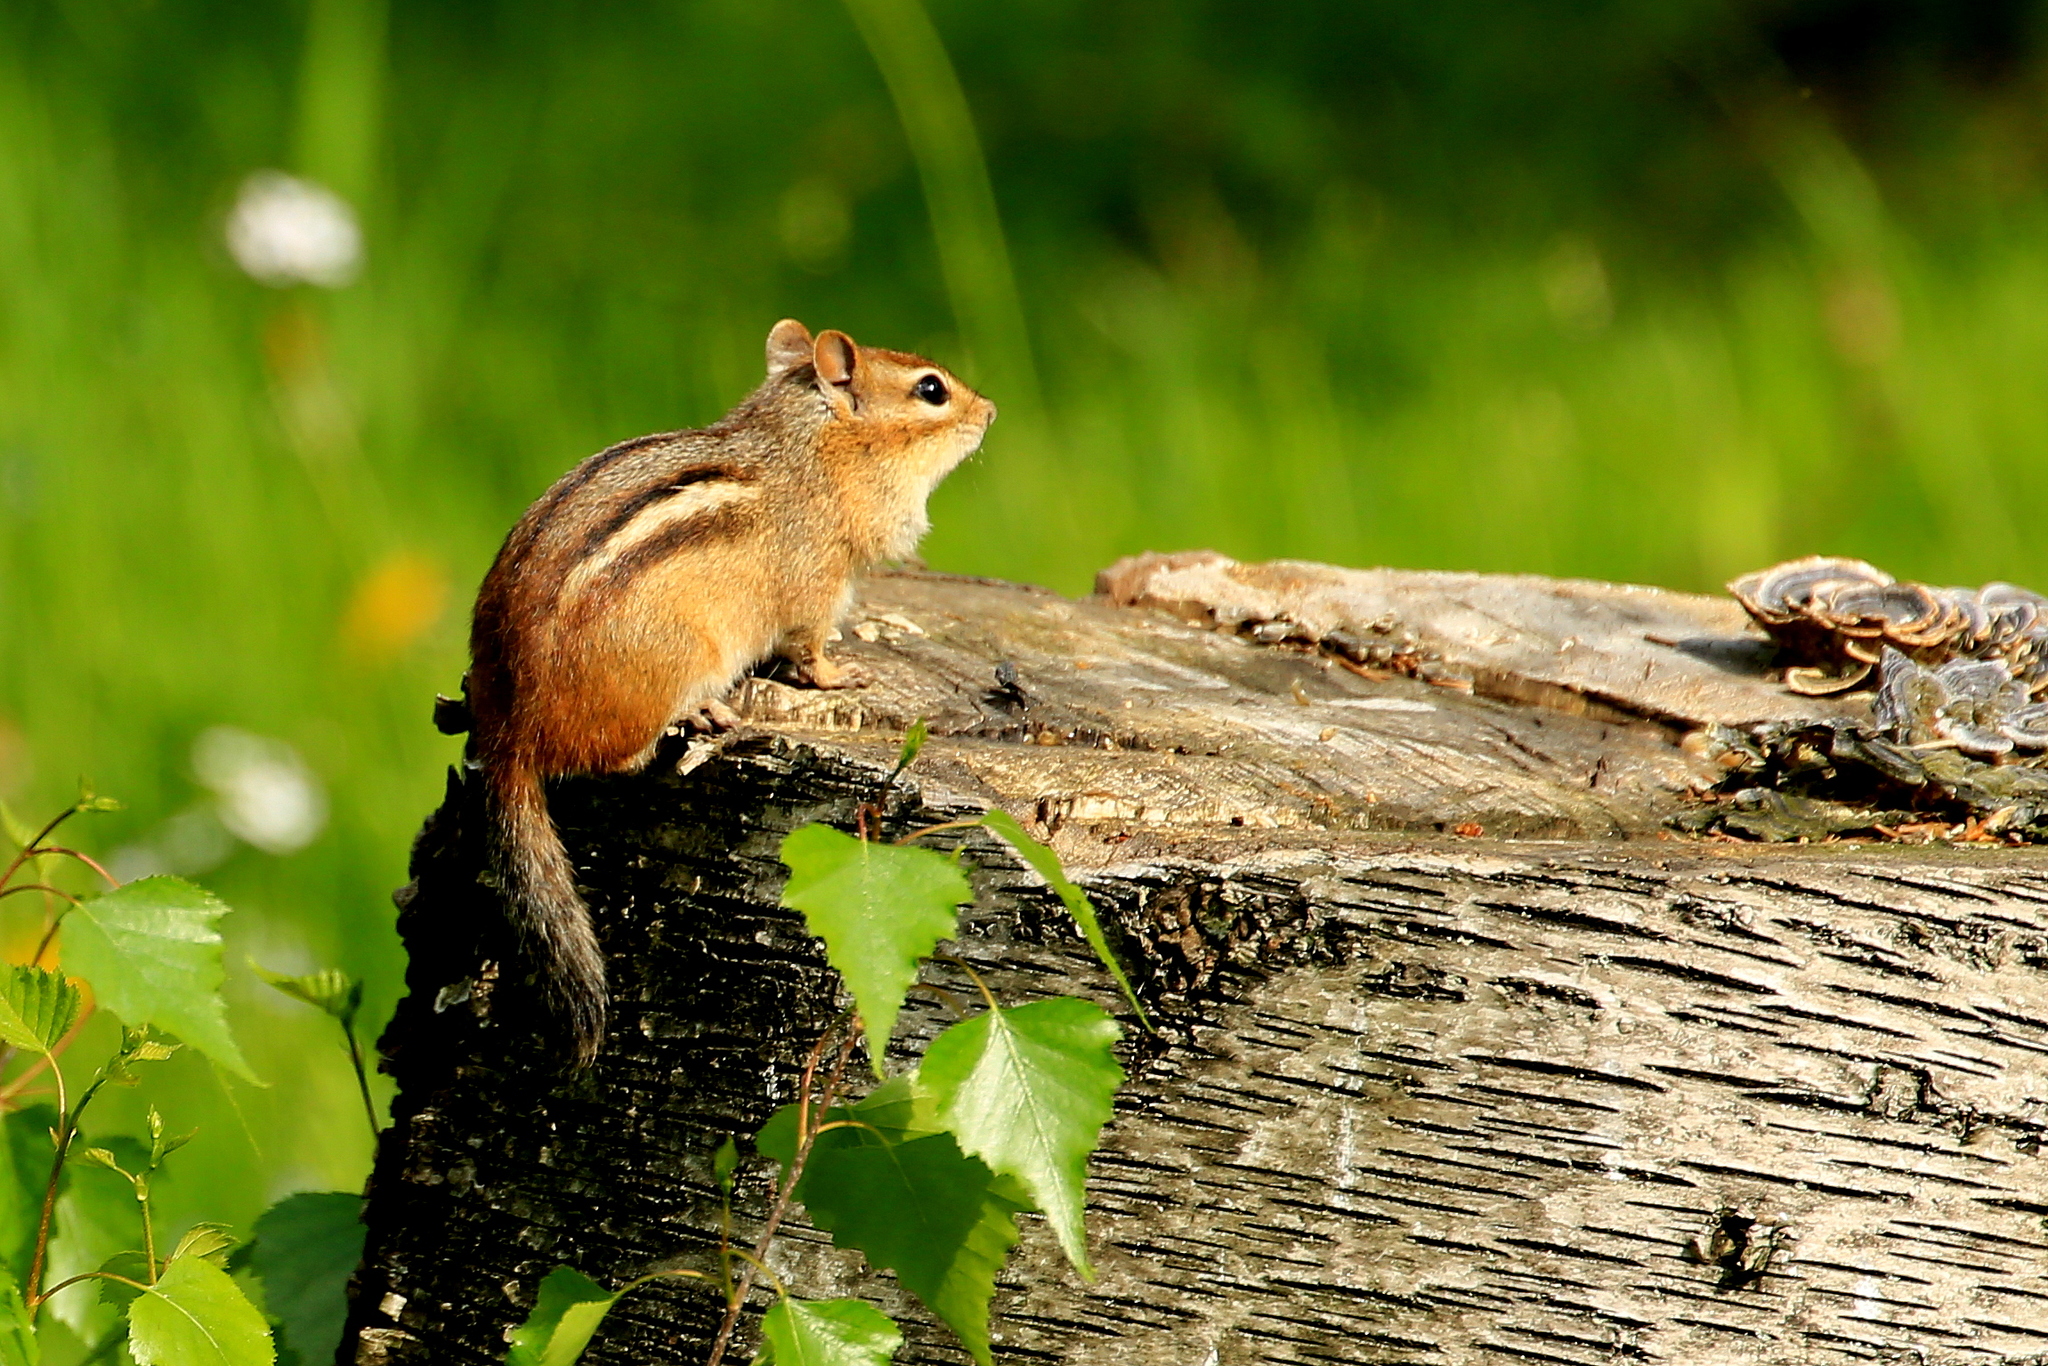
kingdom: Animalia
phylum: Chordata
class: Mammalia
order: Rodentia
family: Sciuridae
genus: Tamias
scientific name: Tamias striatus
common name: Eastern chipmunk
